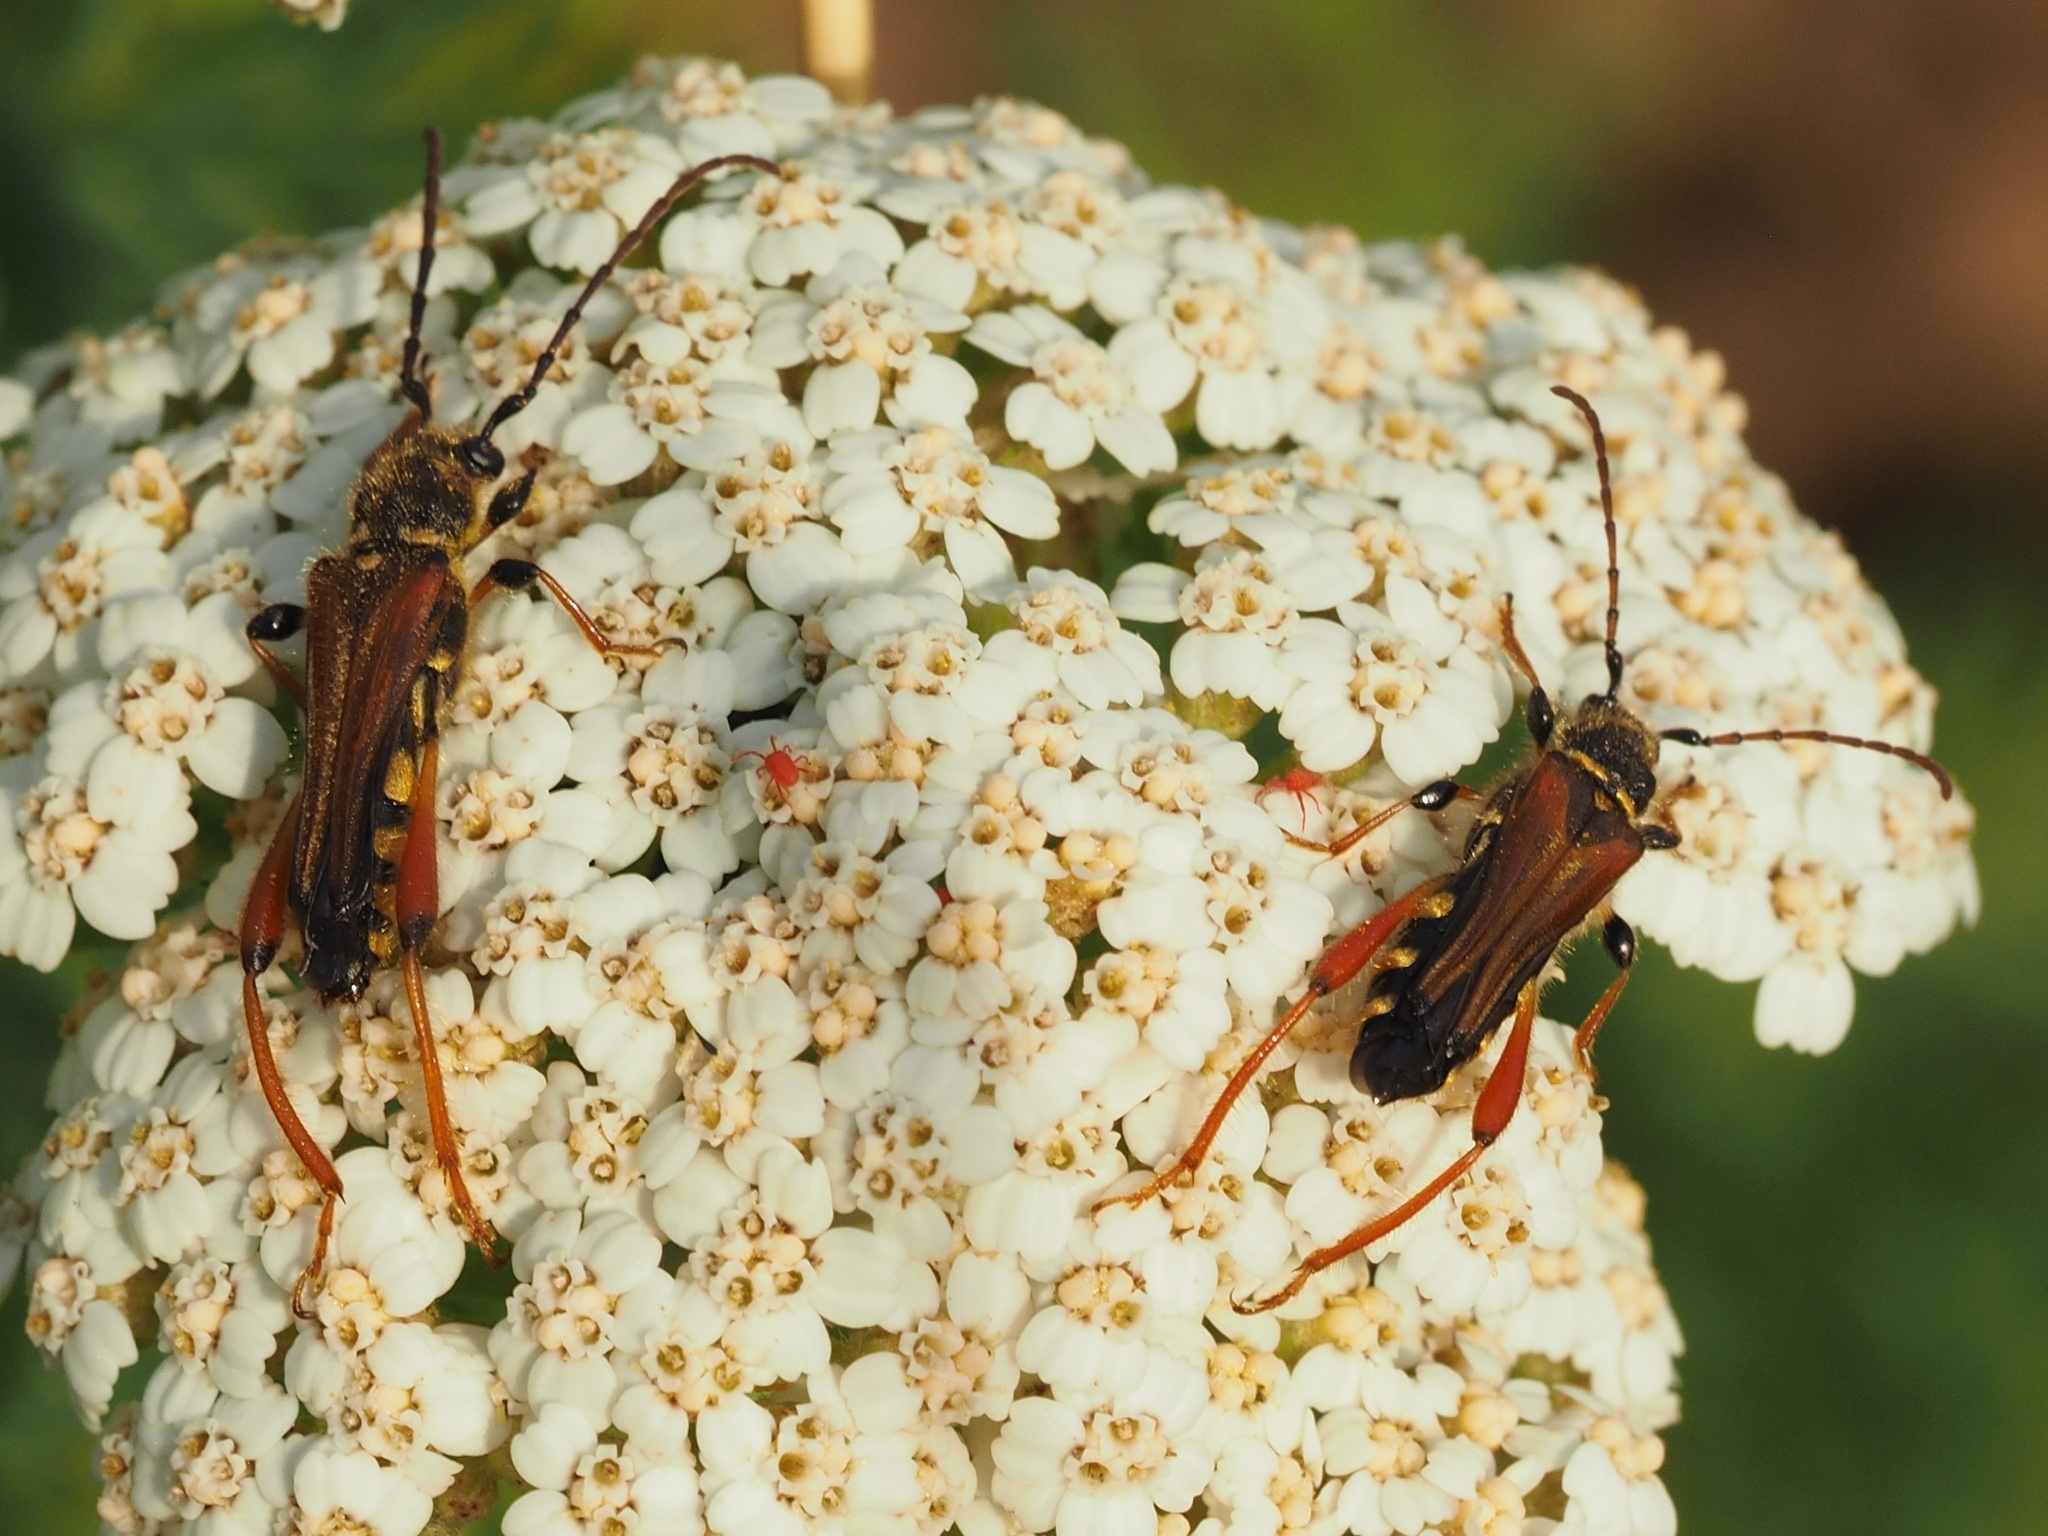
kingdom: Animalia
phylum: Arthropoda
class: Insecta
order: Coleoptera
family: Cerambycidae
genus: Stenopterus
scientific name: Stenopterus rufus
